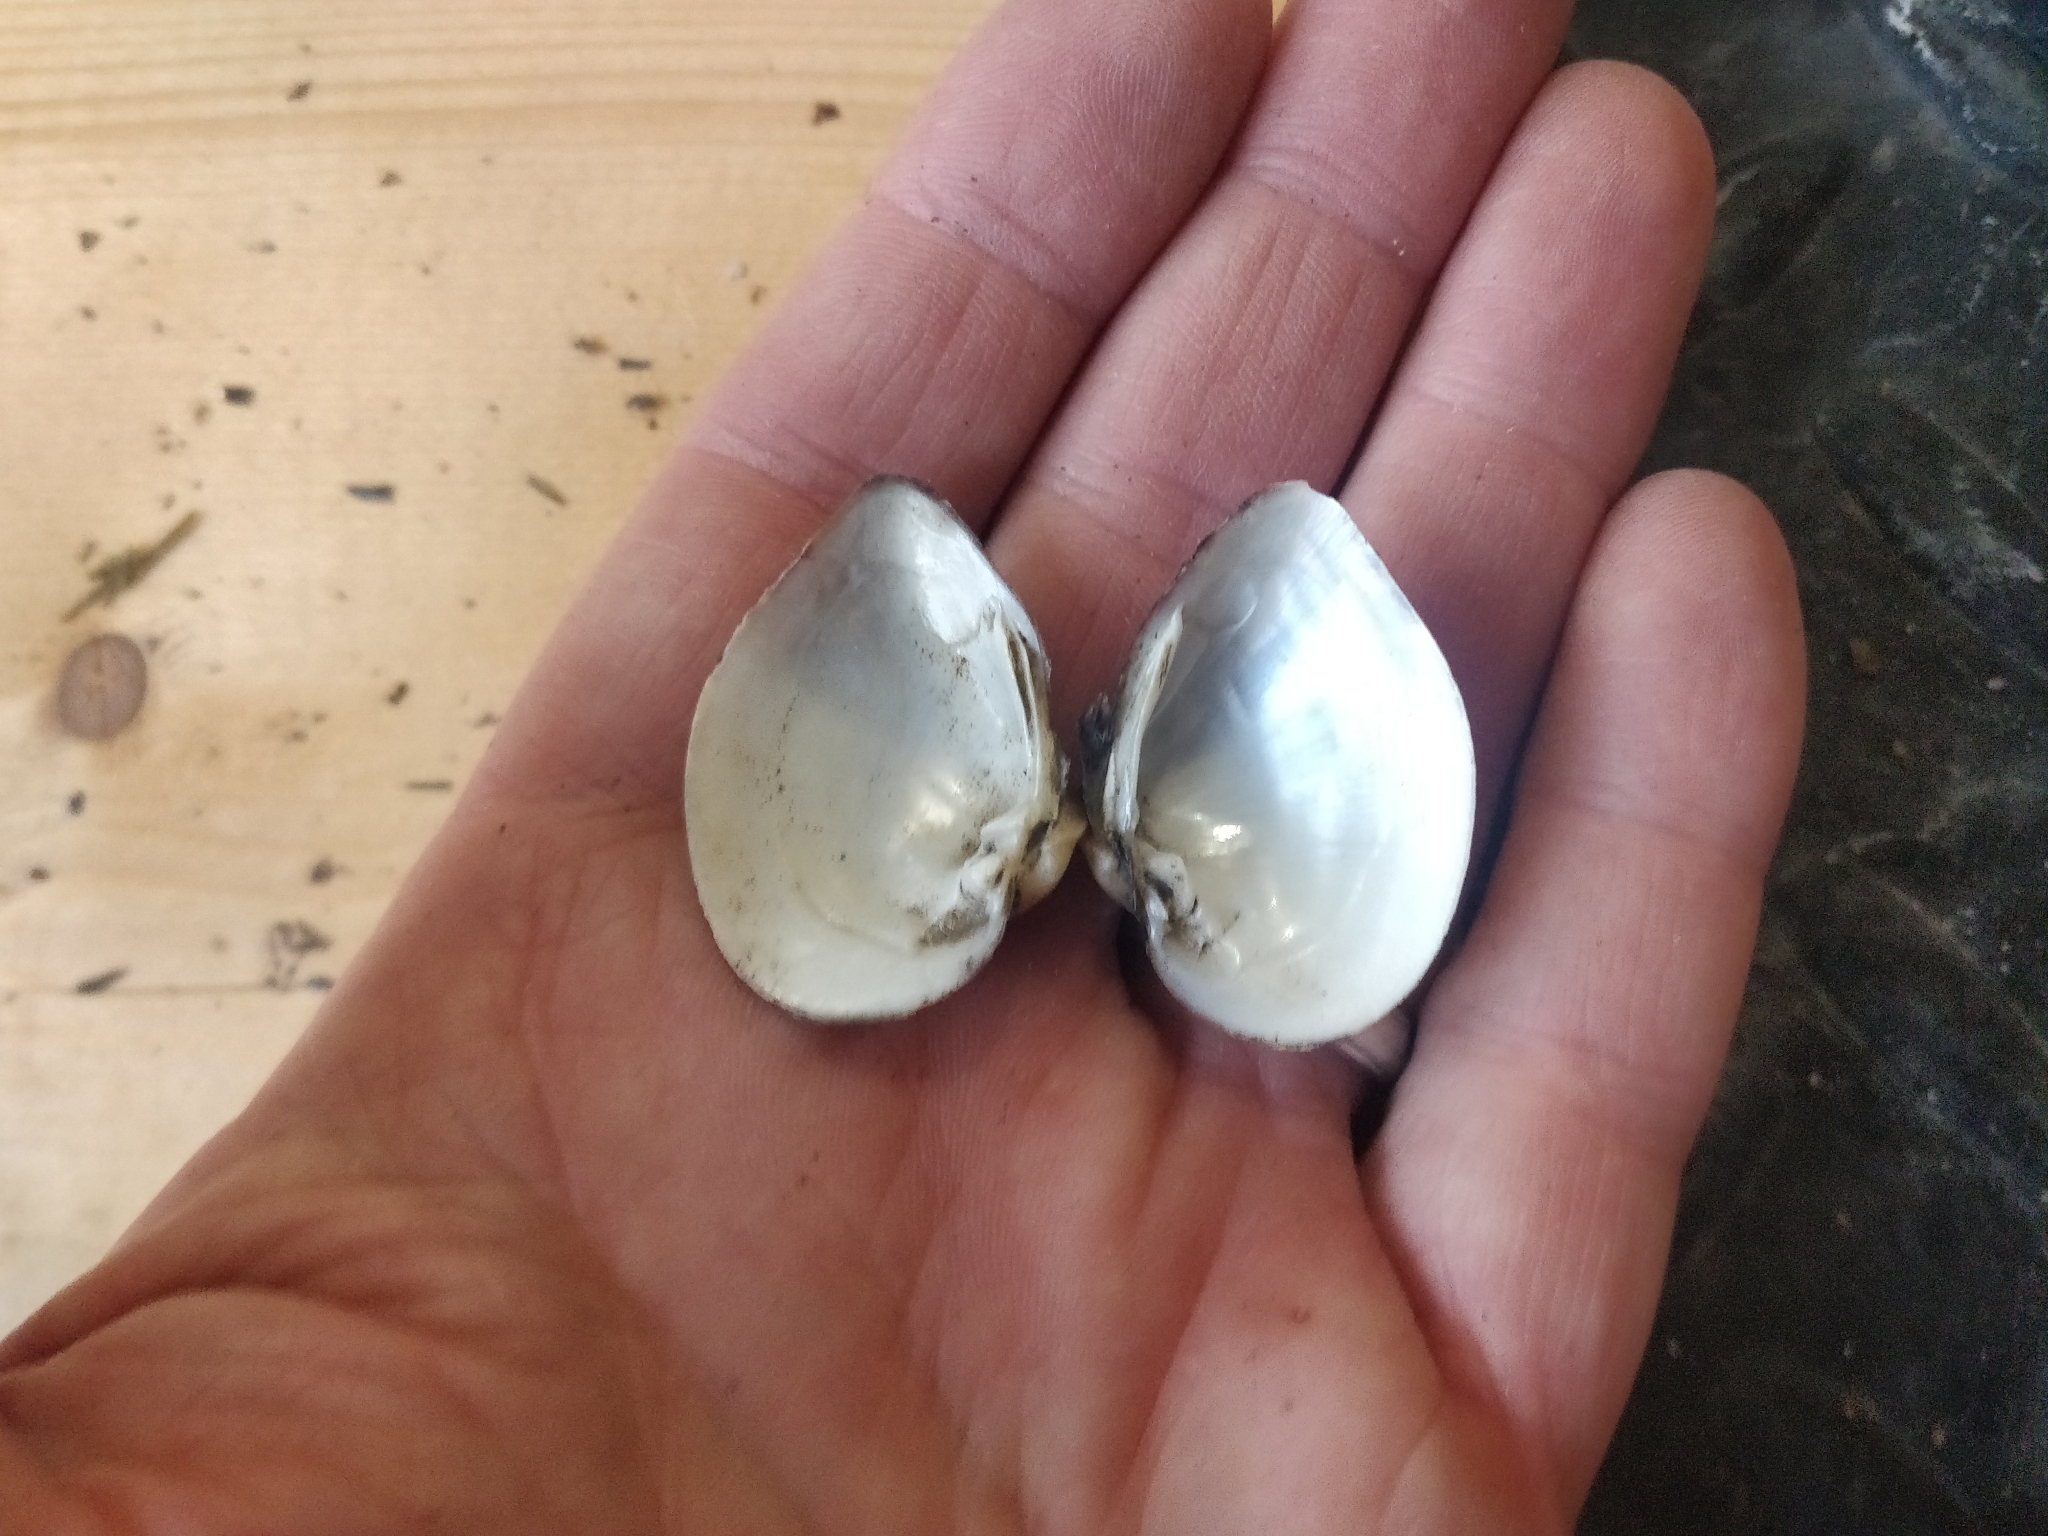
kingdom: Animalia
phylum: Mollusca
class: Bivalvia
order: Unionida
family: Unionidae
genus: Truncilla
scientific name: Truncilla truncata
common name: Deertoe
